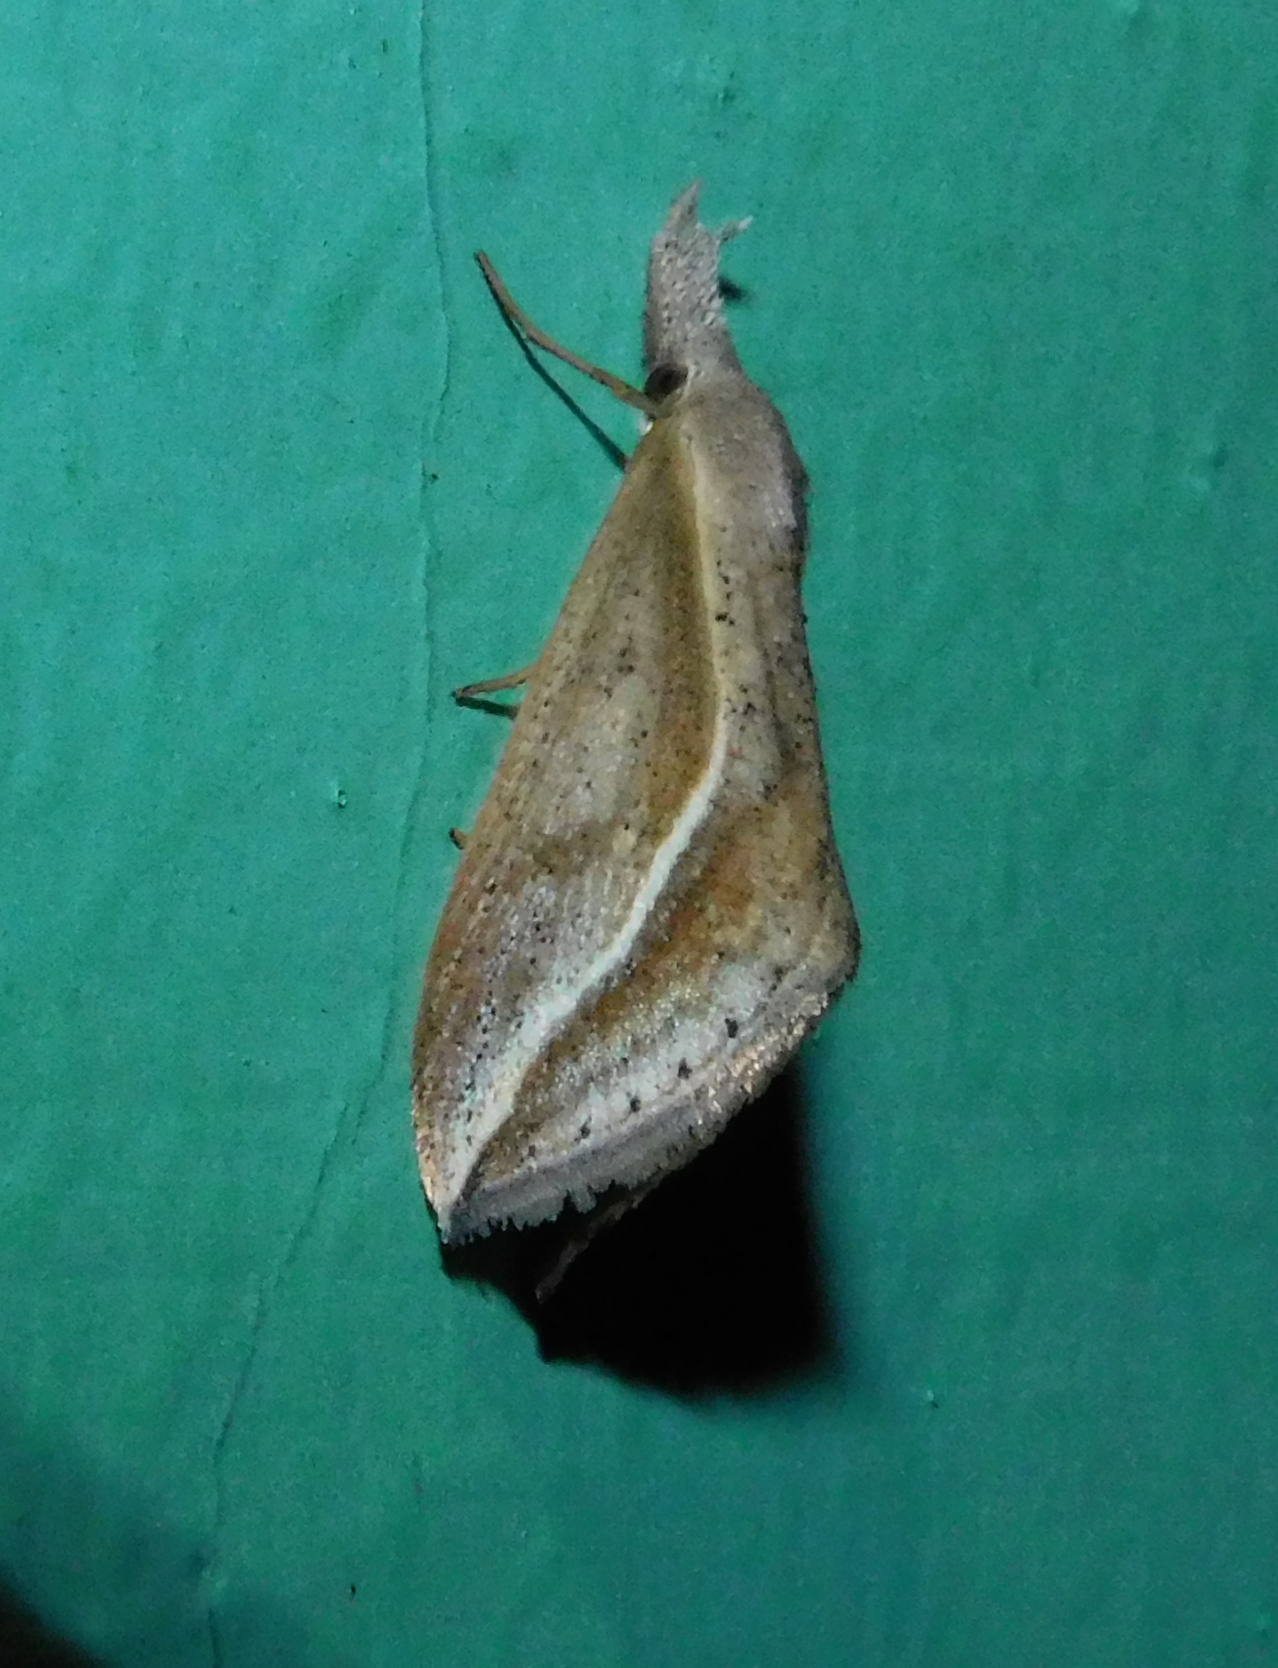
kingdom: Animalia
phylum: Arthropoda
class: Insecta
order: Lepidoptera
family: Erebidae
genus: Rhynchina
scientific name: Rhynchina rivuligera
